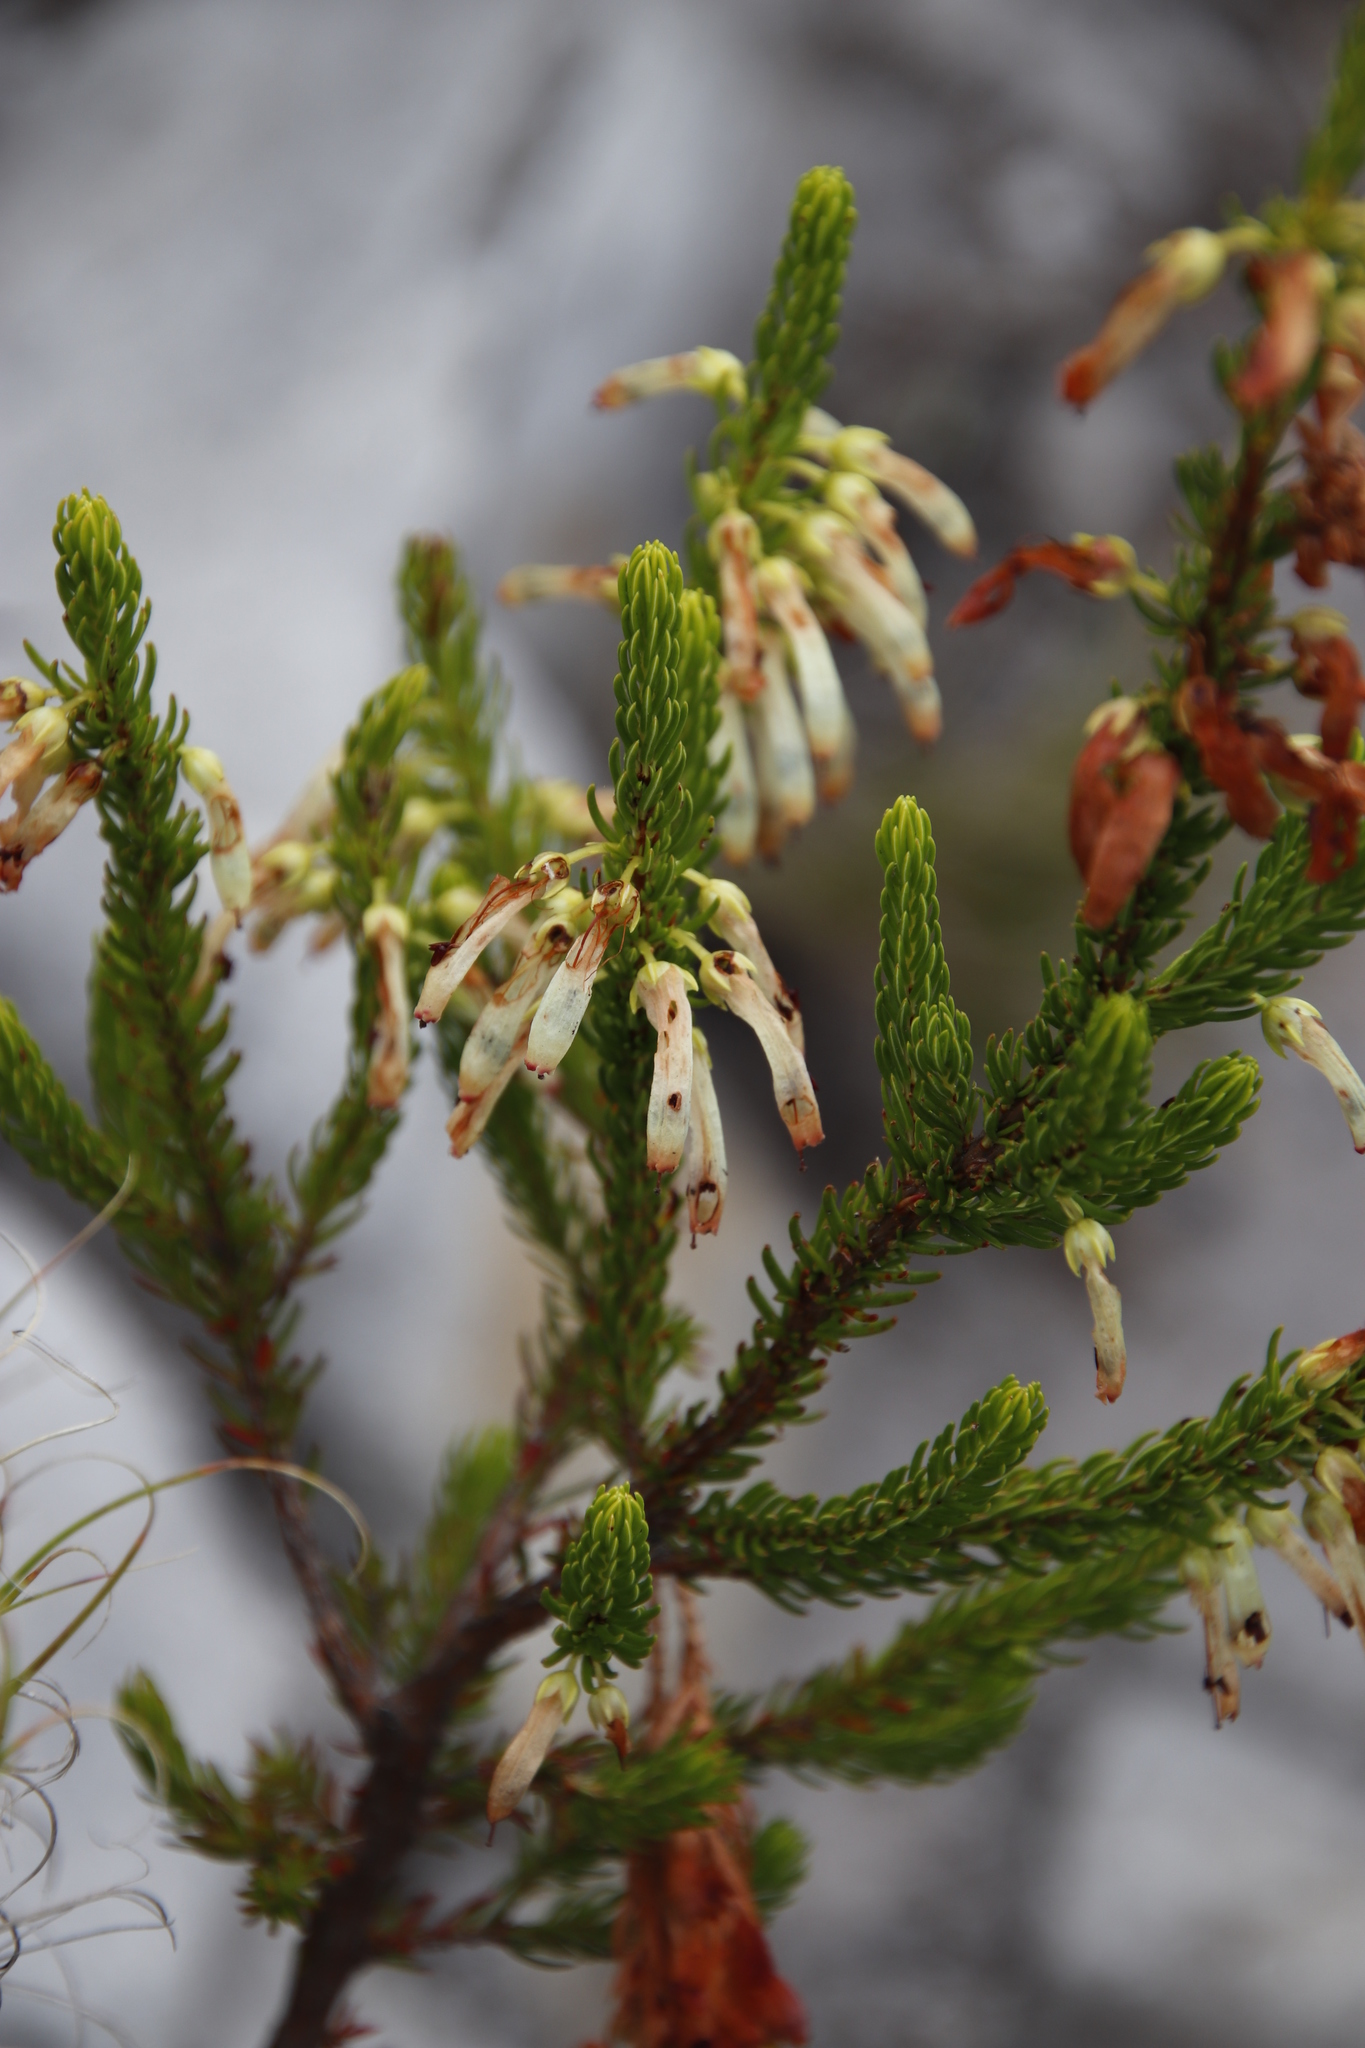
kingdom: Plantae
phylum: Tracheophyta
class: Magnoliopsida
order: Ericales
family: Ericaceae
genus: Erica
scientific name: Erica mammosa
